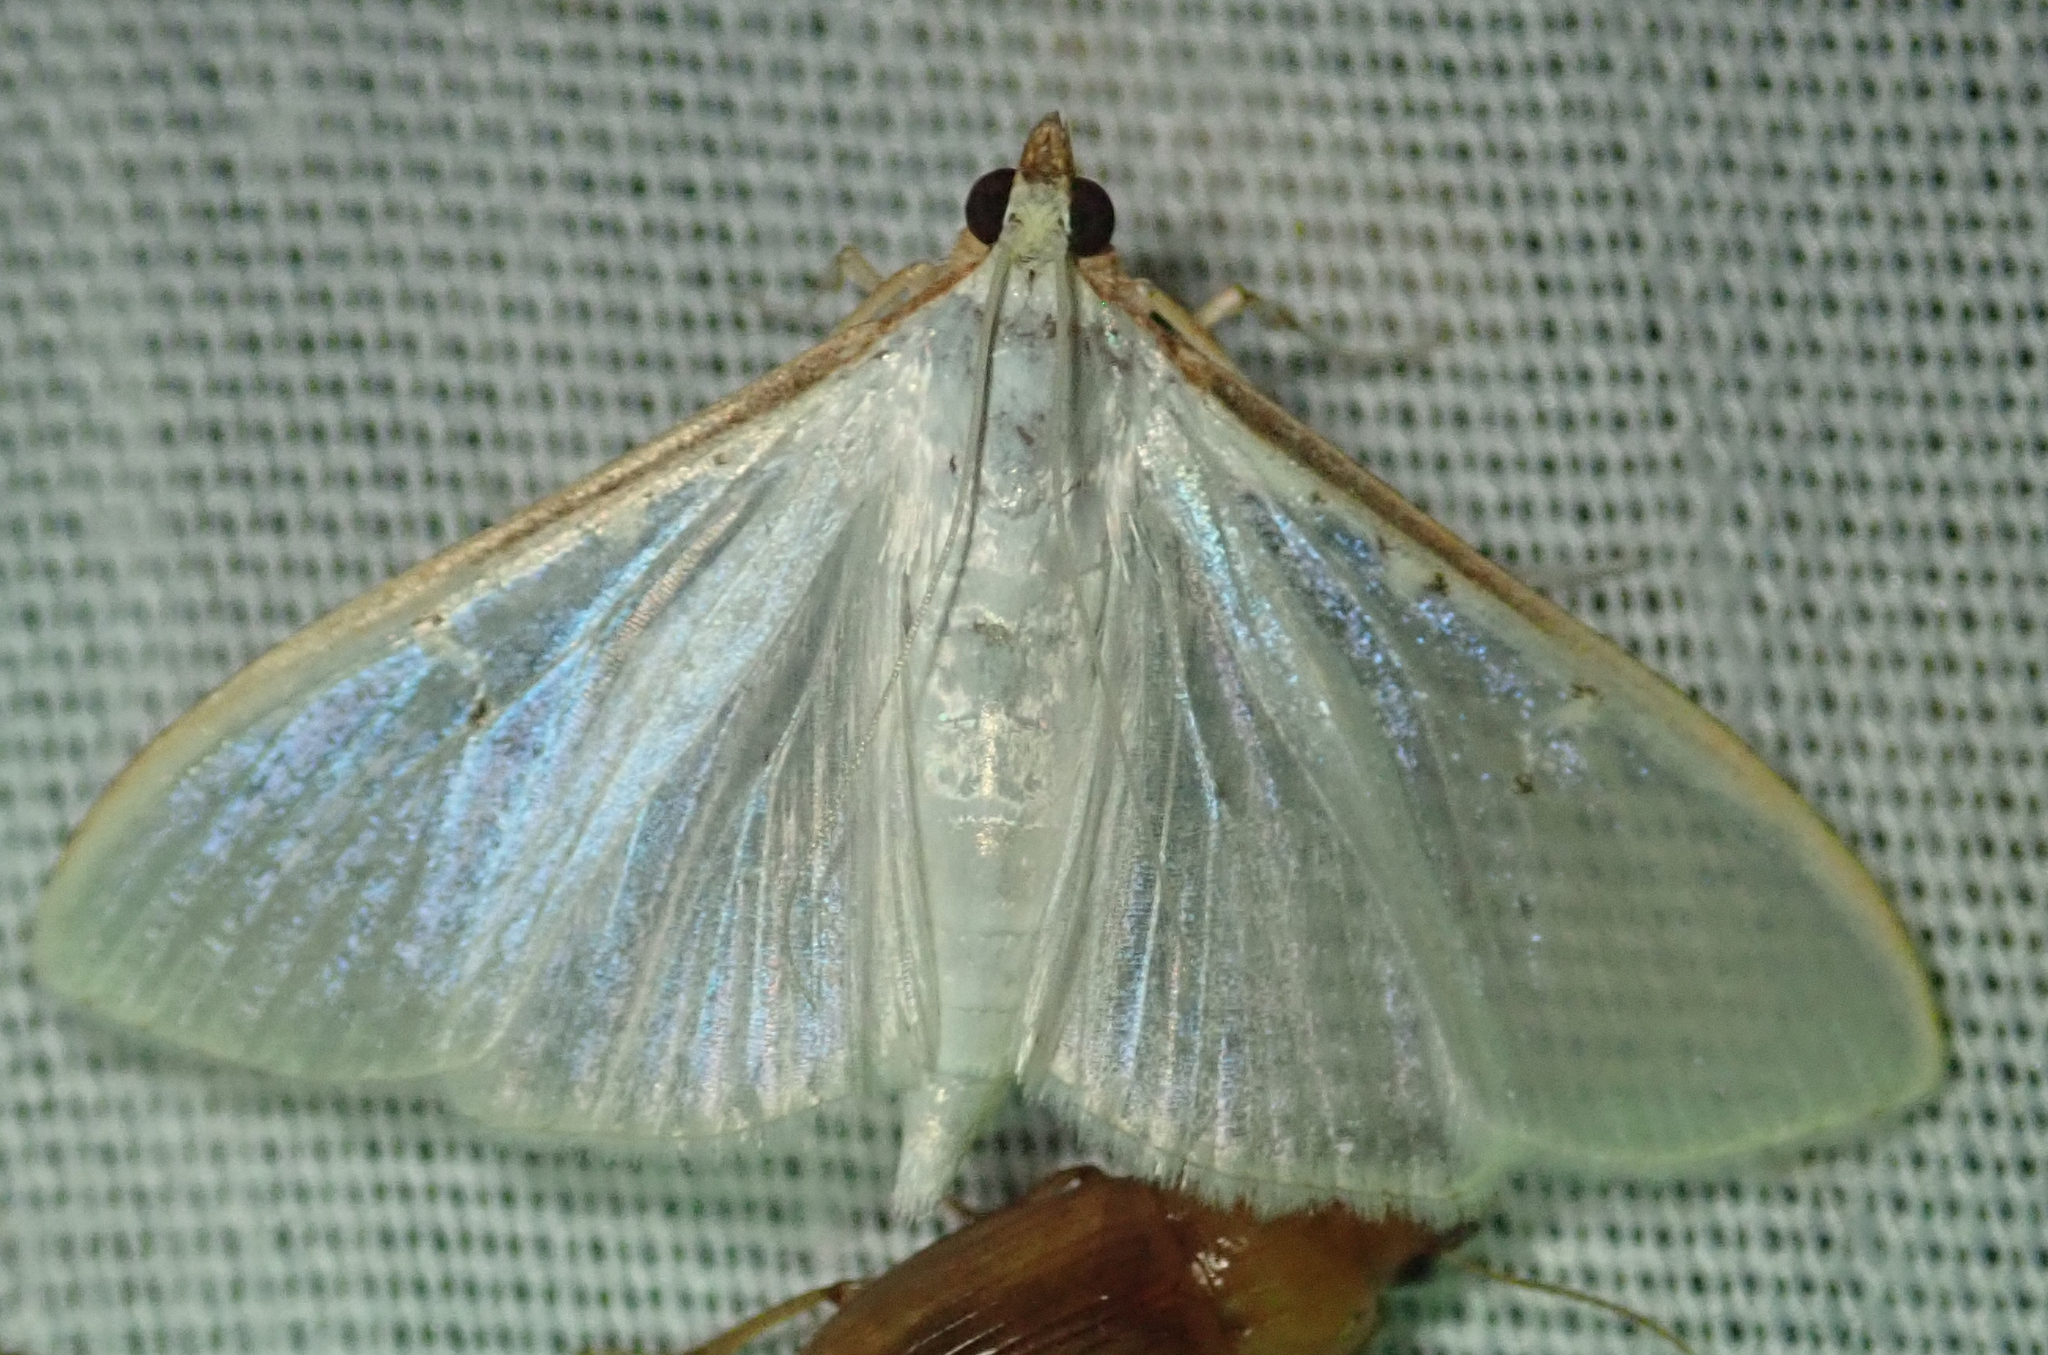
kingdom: Animalia
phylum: Arthropoda
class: Insecta
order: Lepidoptera
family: Crambidae
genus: Palpita
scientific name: Palpita vitrealis
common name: Olive-tree pearl
